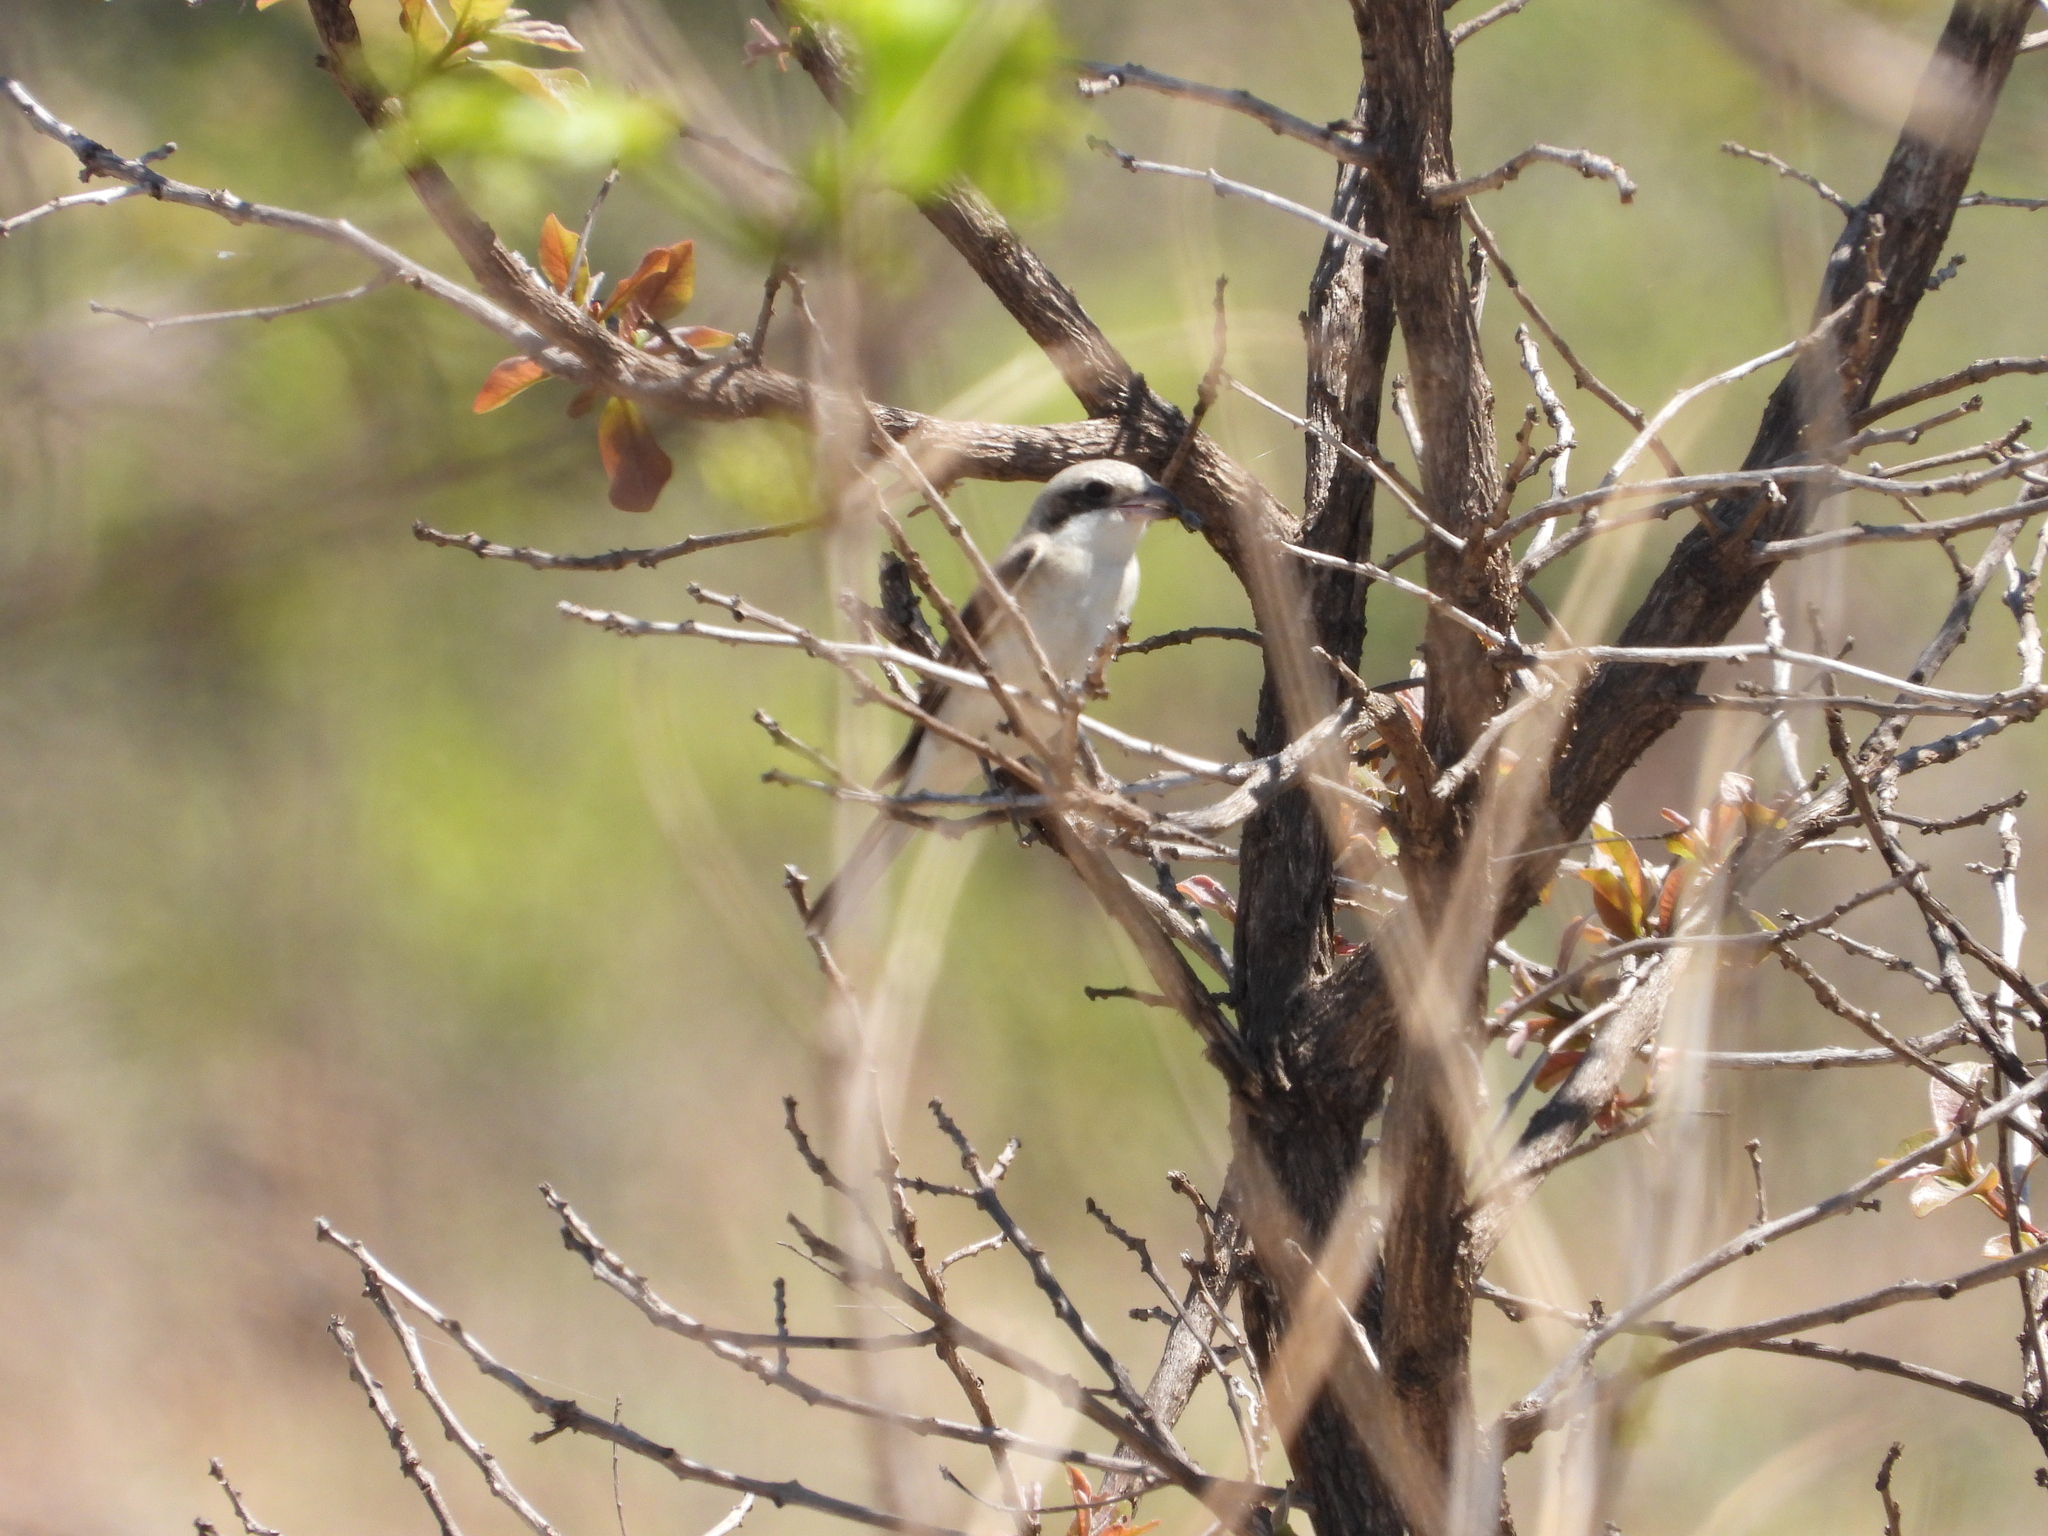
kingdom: Animalia
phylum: Chordata
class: Aves
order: Passeriformes
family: Laniidae
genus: Lanius
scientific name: Lanius minor
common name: Lesser grey shrike
